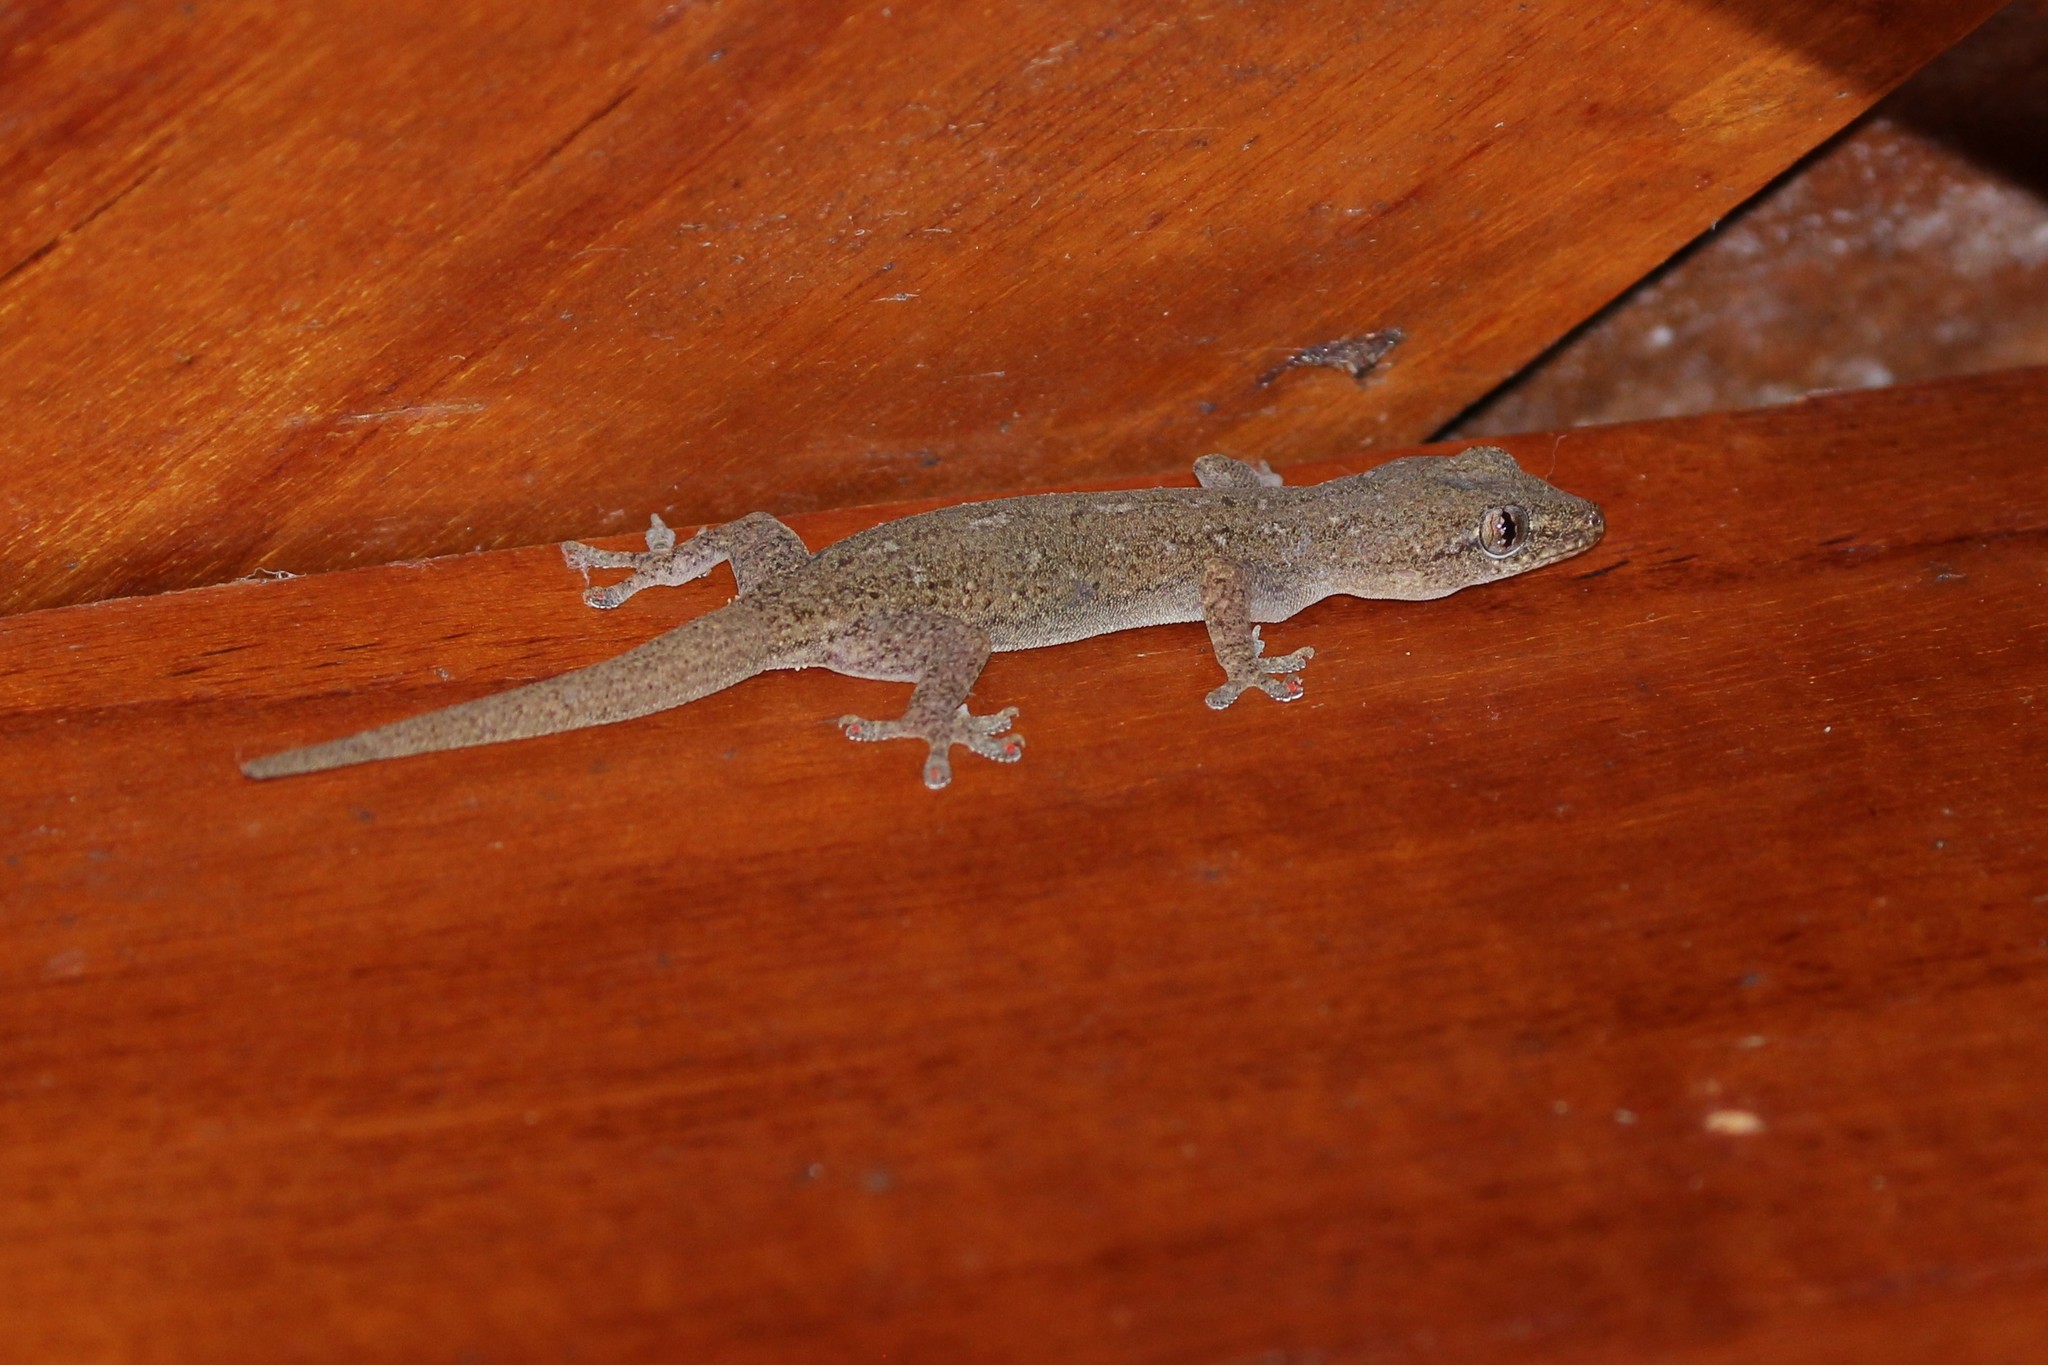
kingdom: Animalia
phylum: Chordata
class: Squamata
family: Gekkonidae
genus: Hemidactylus
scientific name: Hemidactylus frenatus
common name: Common house gecko
